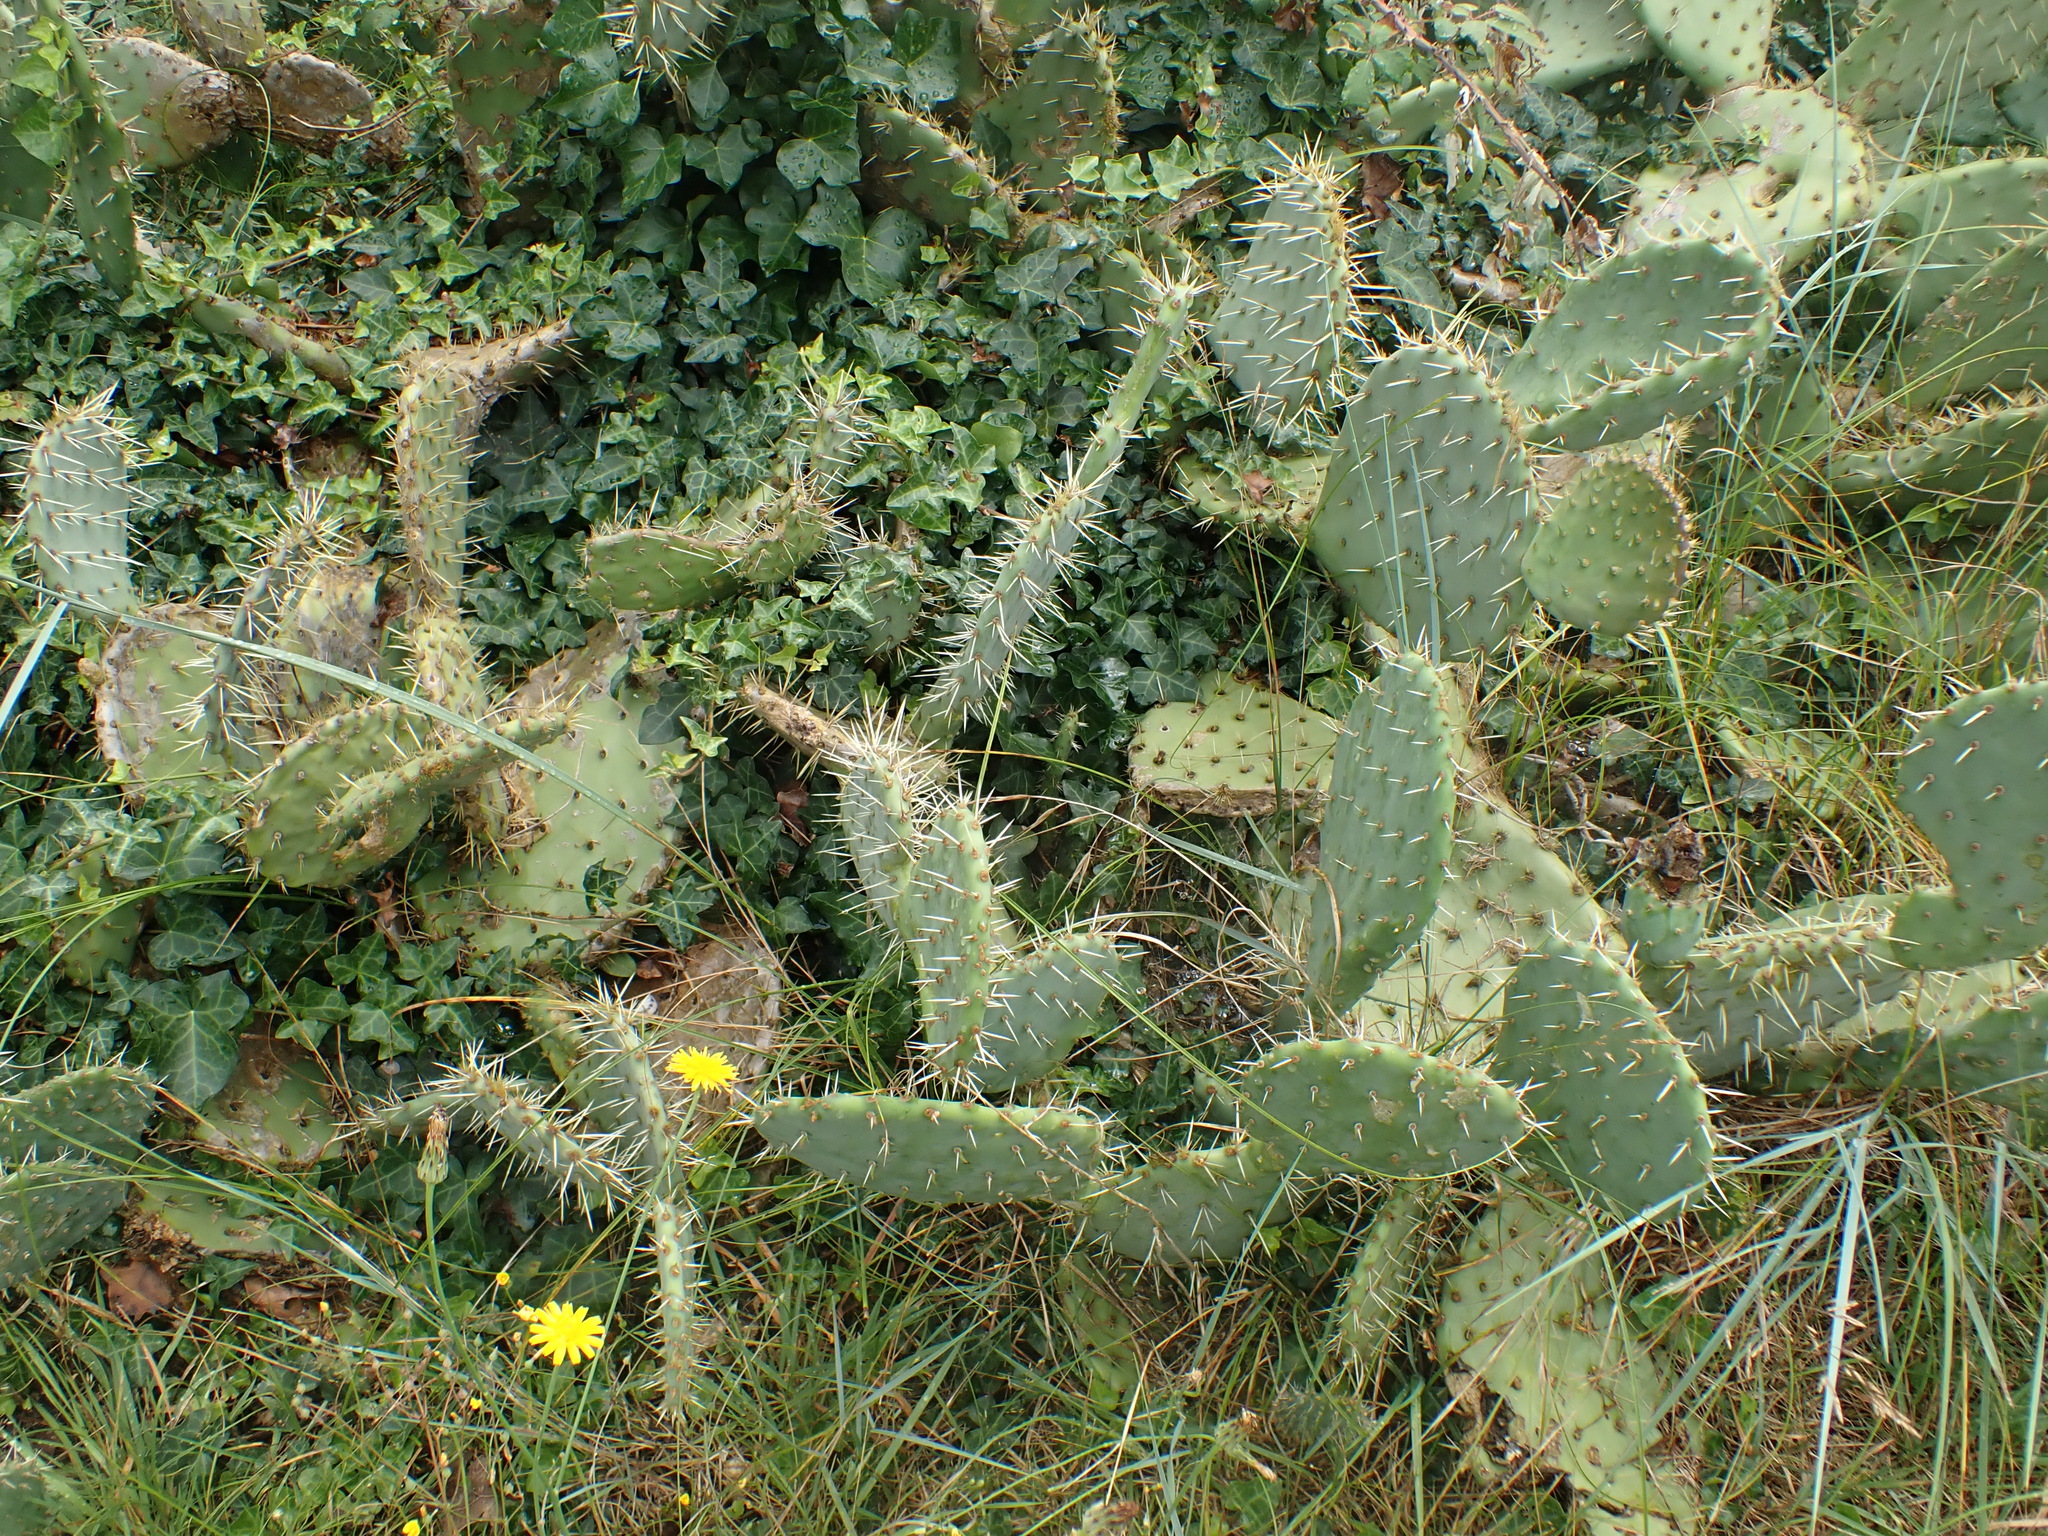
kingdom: Plantae
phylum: Tracheophyta
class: Magnoliopsida
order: Caryophyllales
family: Cactaceae
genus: Opuntia
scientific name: Opuntia orbiculata
